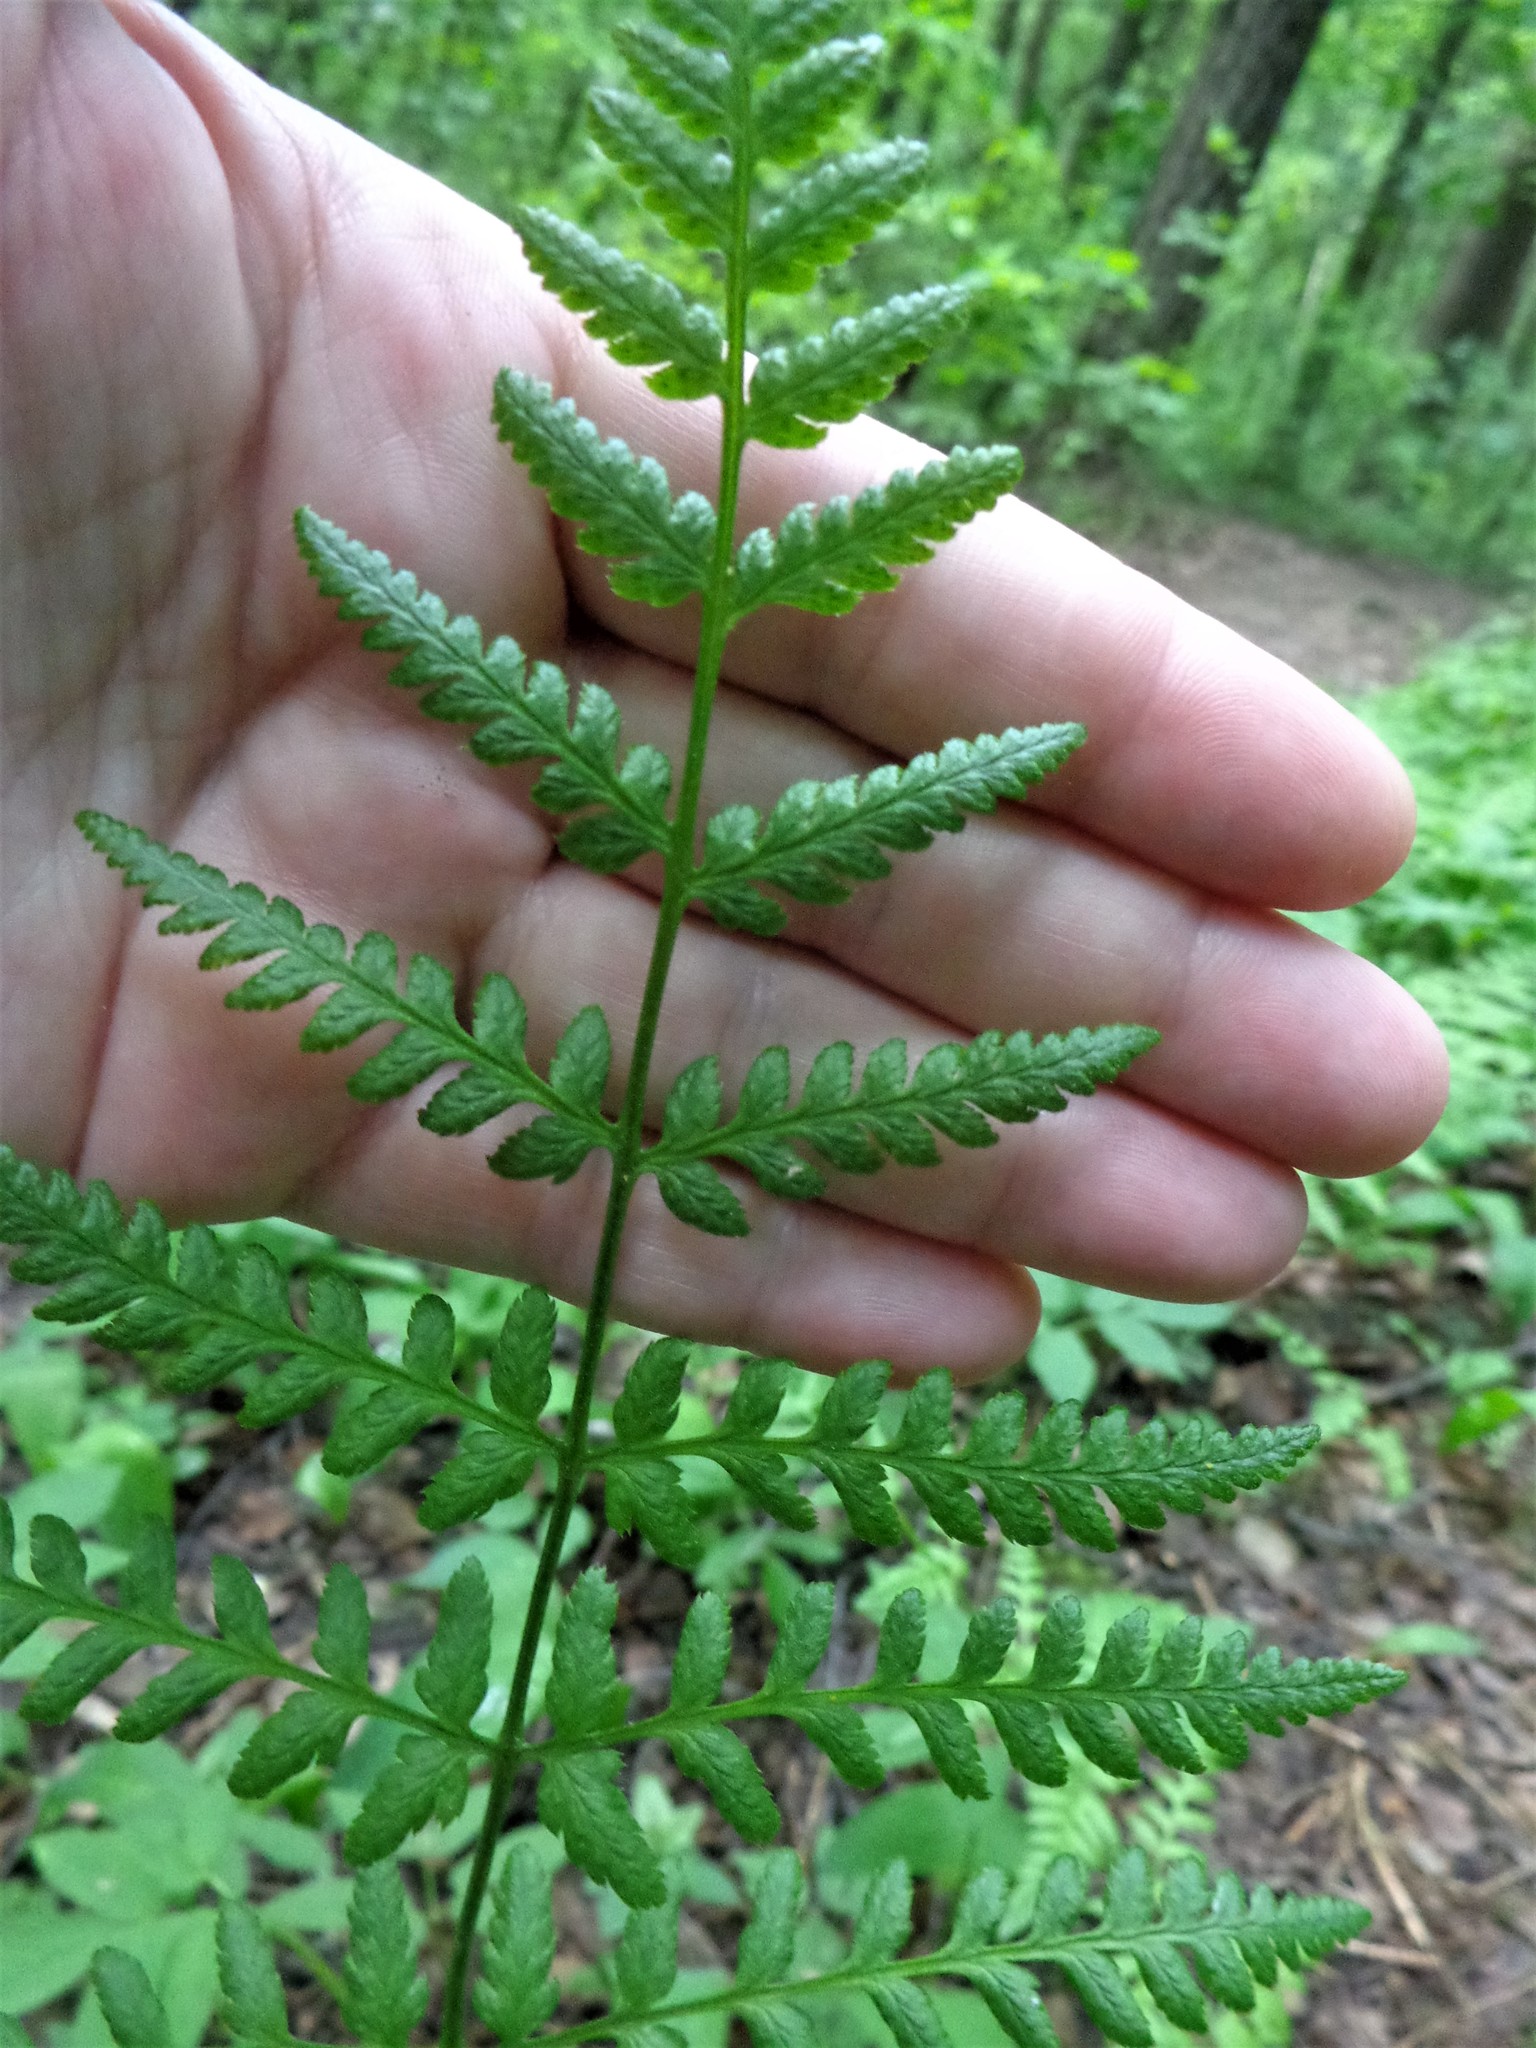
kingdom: Plantae
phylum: Tracheophyta
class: Polypodiopsida
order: Polypodiales
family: Dryopteridaceae
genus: Dryopteris
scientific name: Dryopteris carthusiana
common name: Narrow buckler-fern
